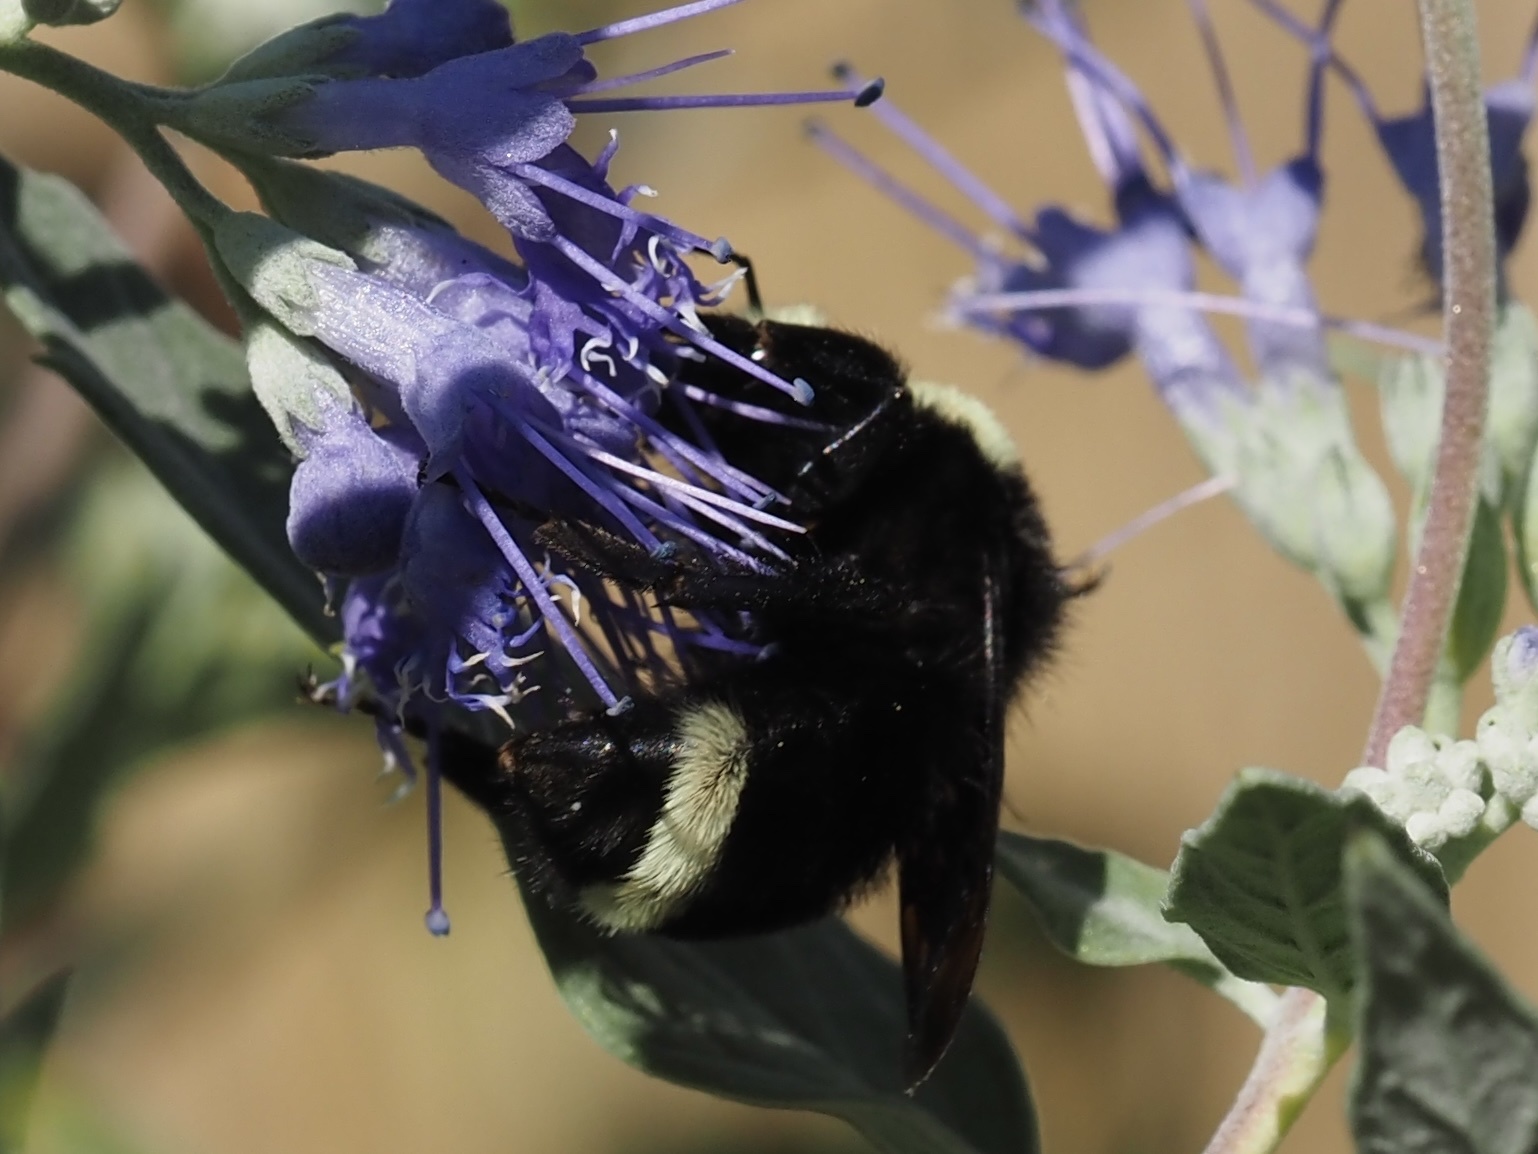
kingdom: Animalia
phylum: Arthropoda
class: Insecta
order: Hymenoptera
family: Apidae
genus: Bombus
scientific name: Bombus vosnesenskii
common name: Vosnesensky bumble bee
